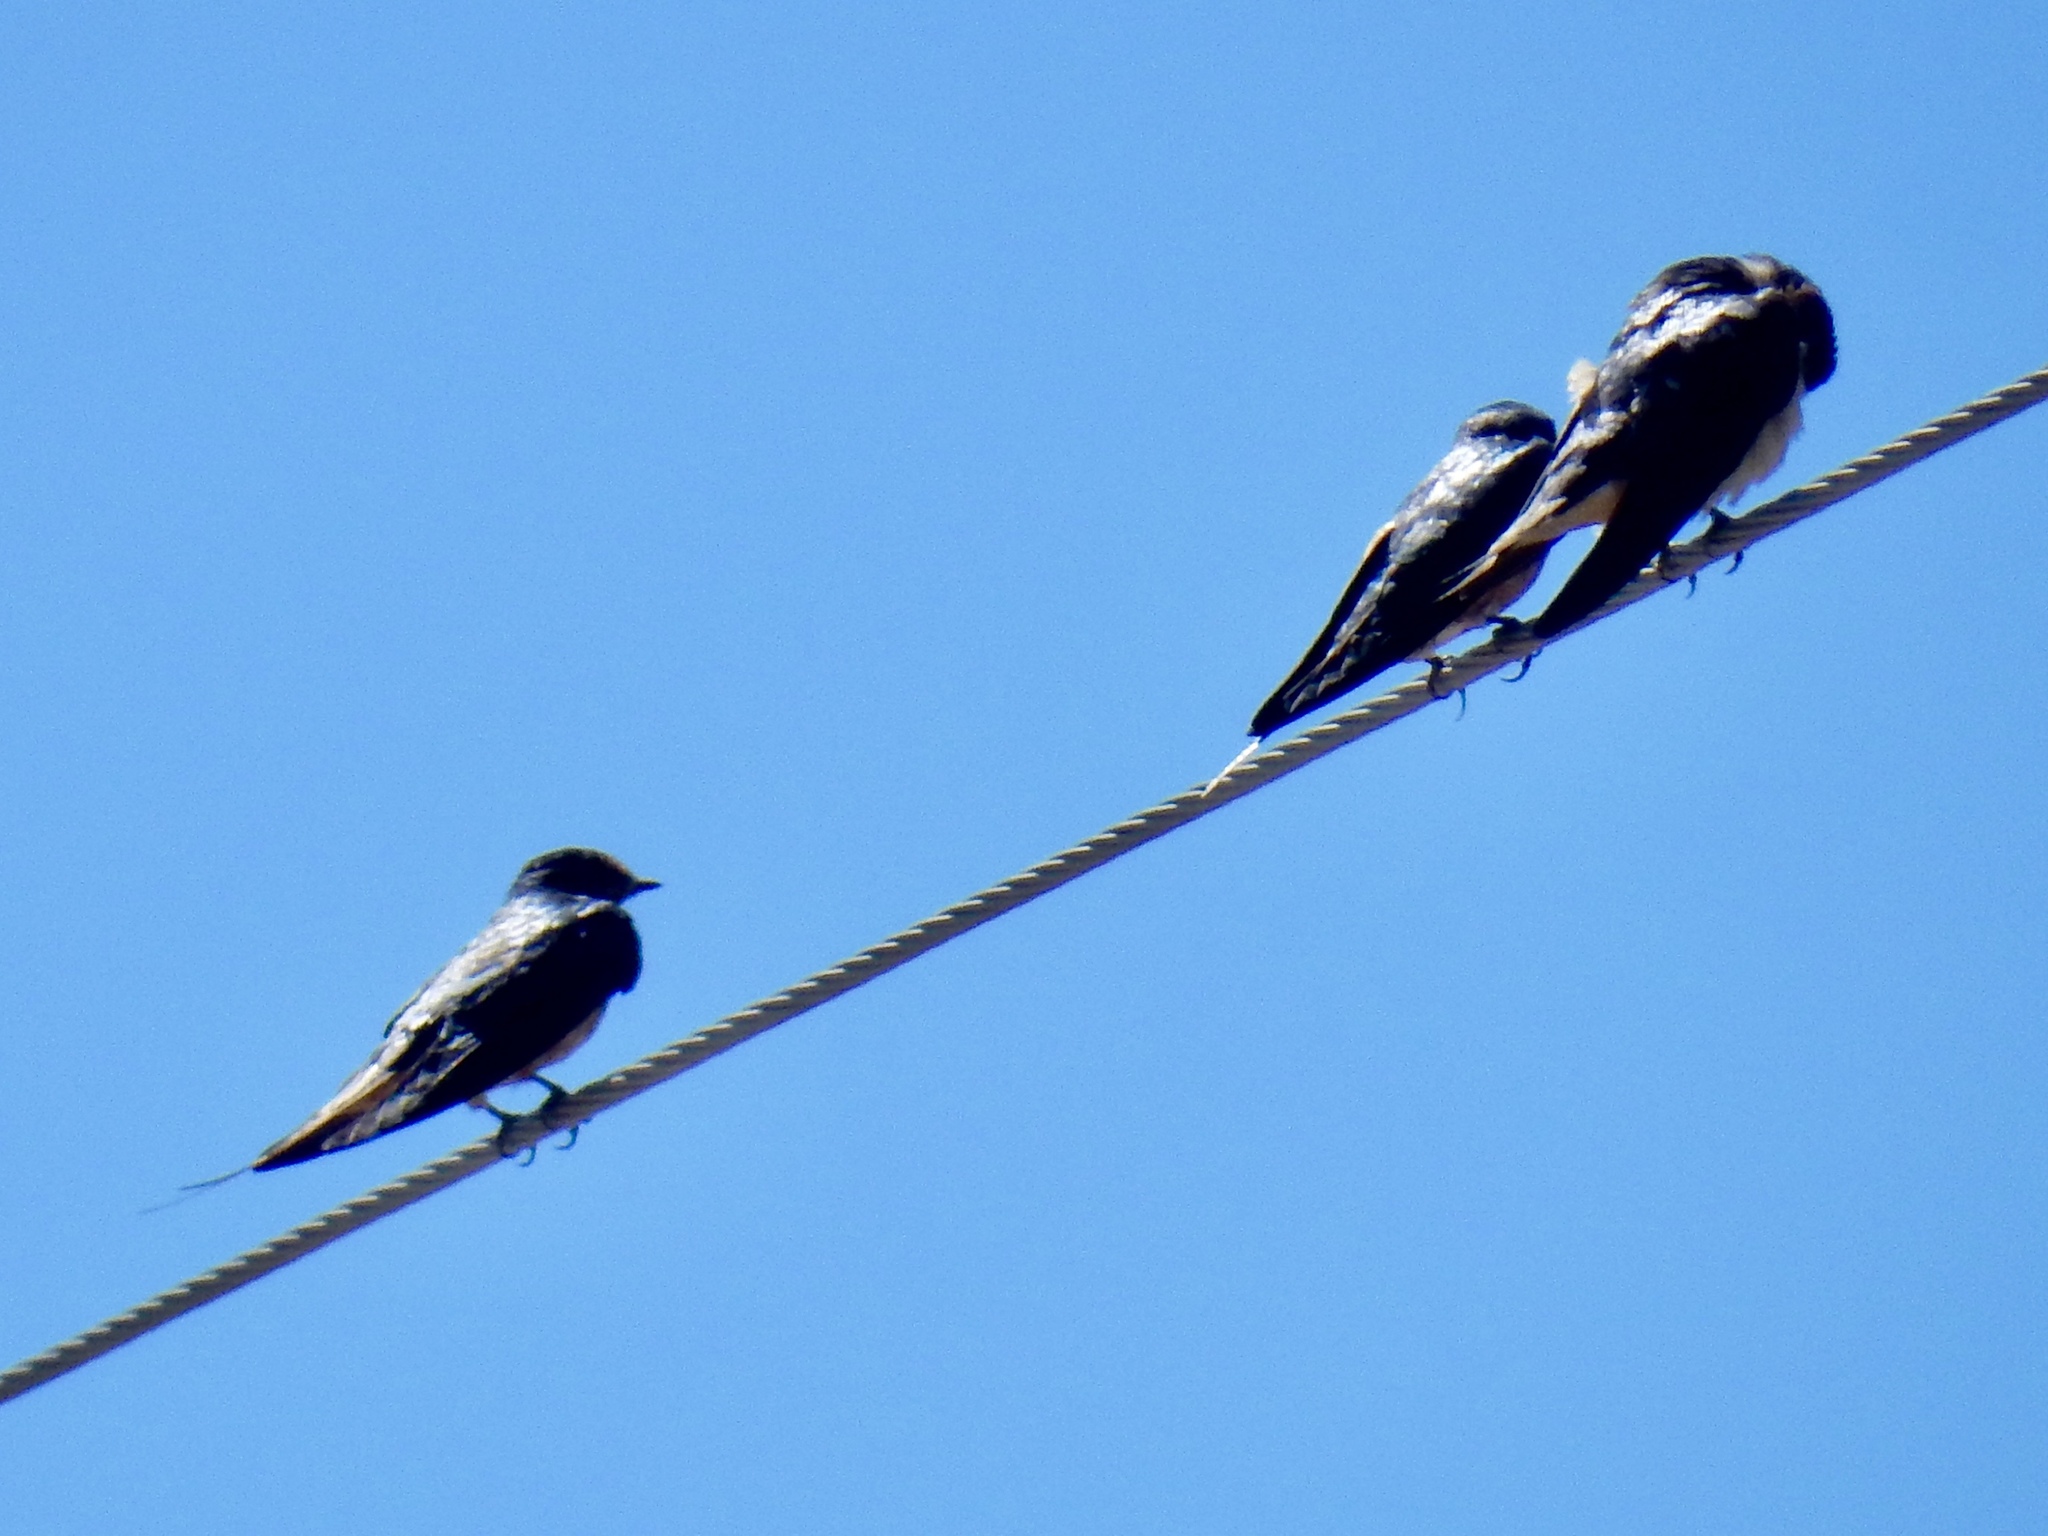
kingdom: Animalia
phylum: Chordata
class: Aves
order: Passeriformes
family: Hirundinidae
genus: Hirundo
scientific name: Hirundo rustica
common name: Barn swallow
